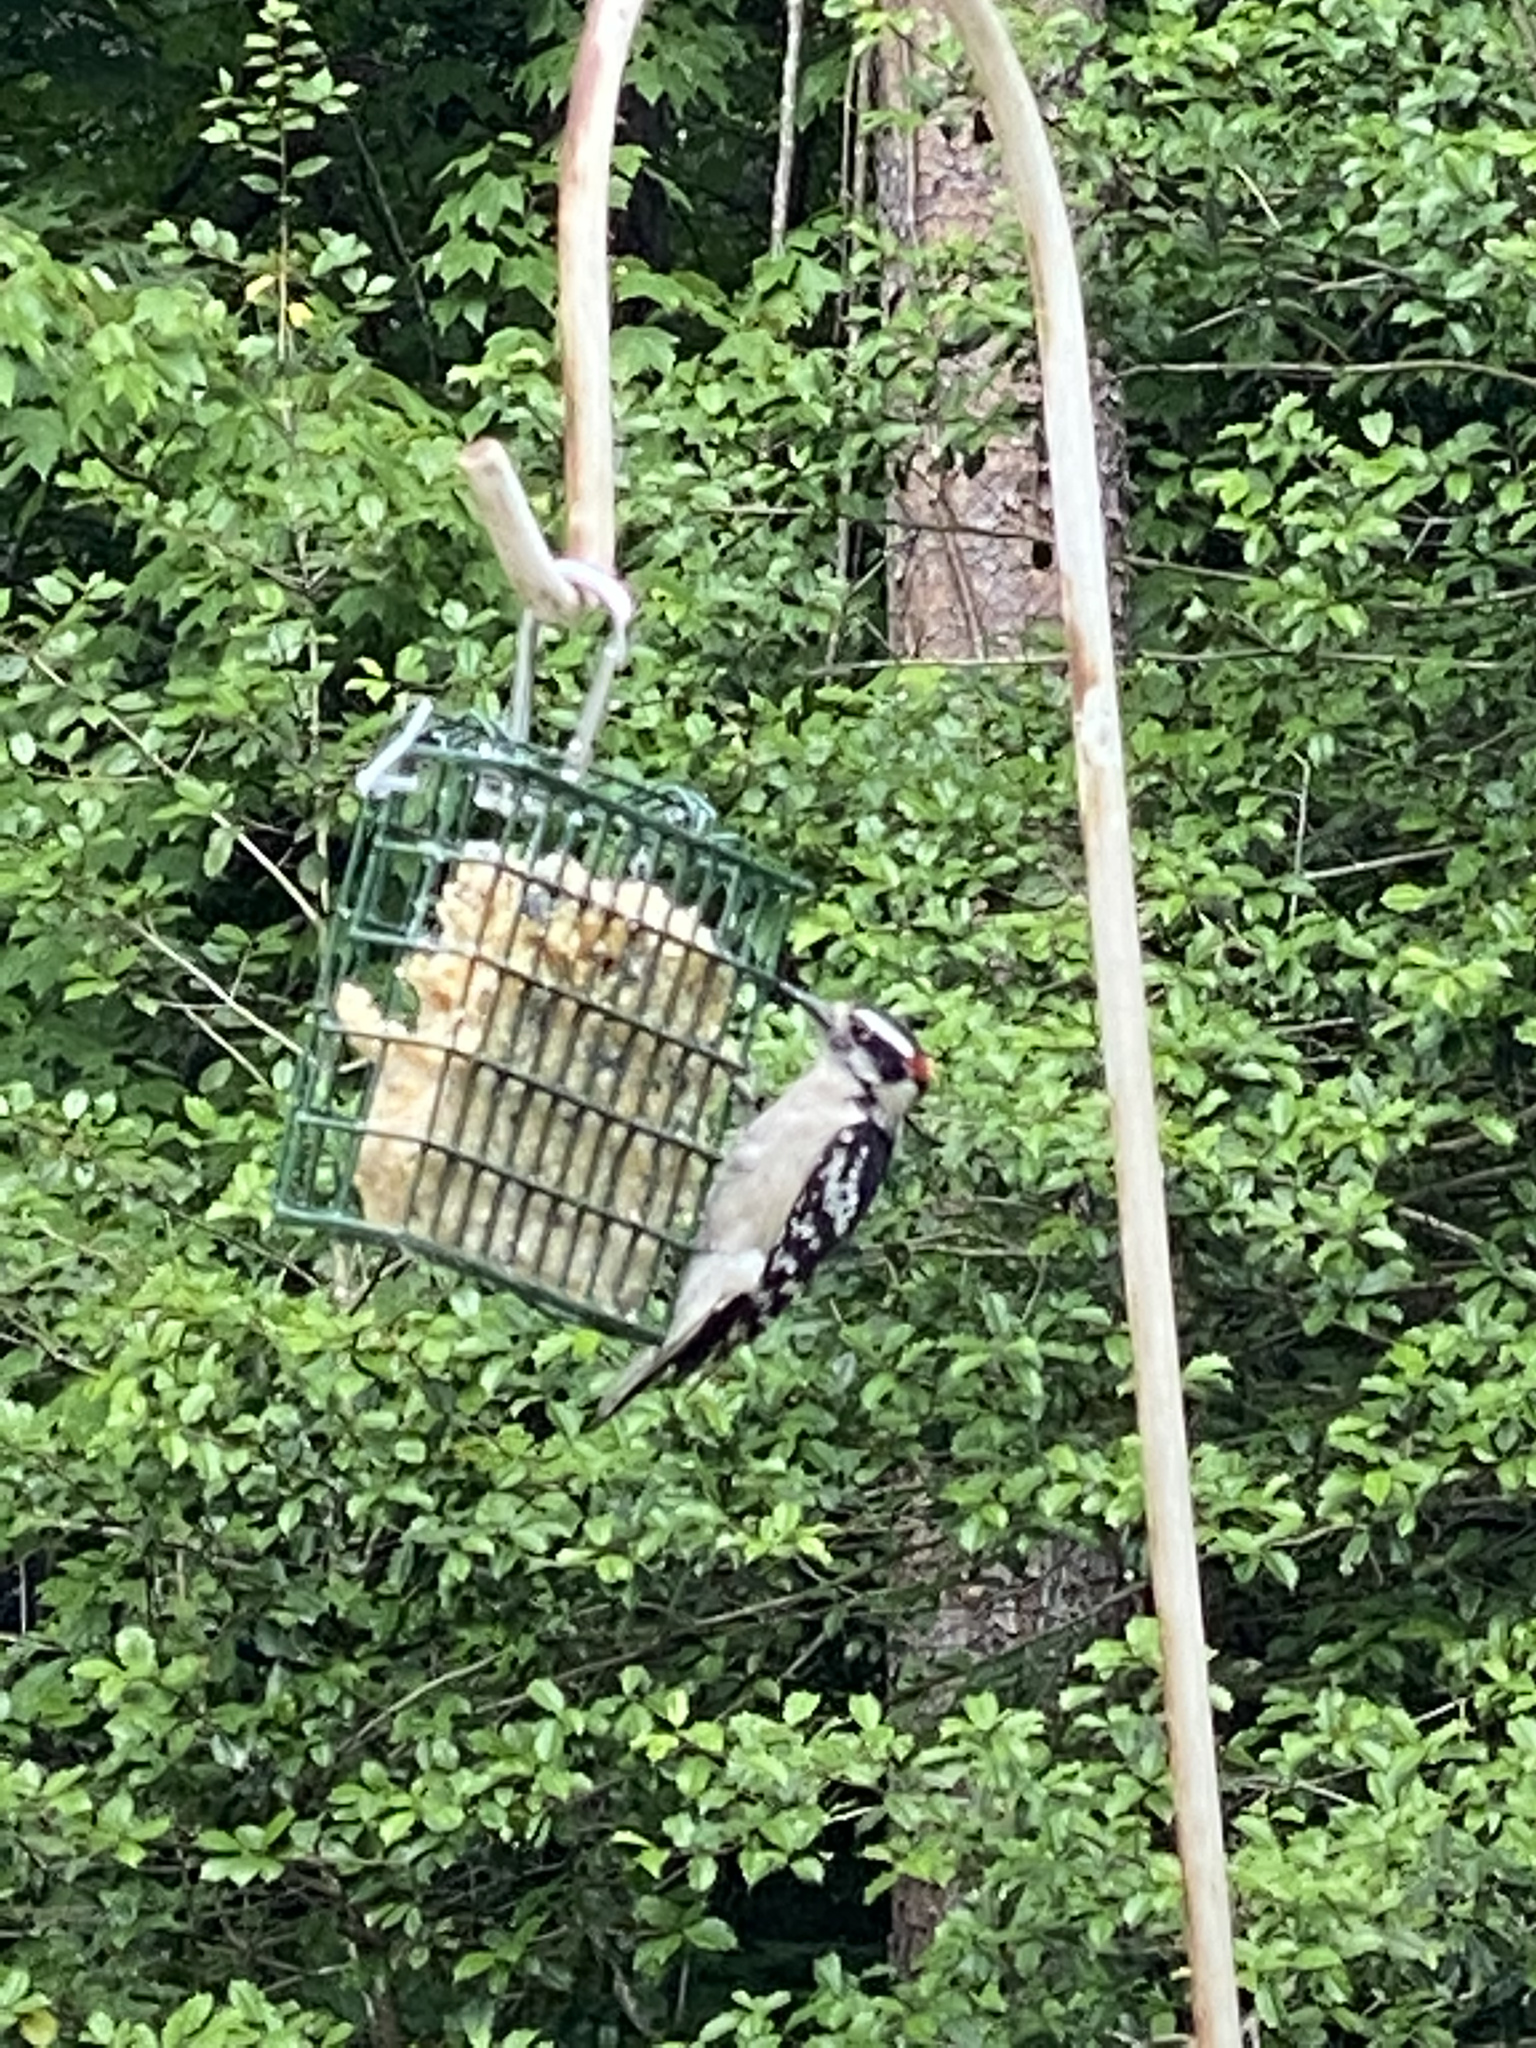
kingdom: Animalia
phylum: Chordata
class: Aves
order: Piciformes
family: Picidae
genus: Dryobates
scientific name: Dryobates pubescens
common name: Downy woodpecker
